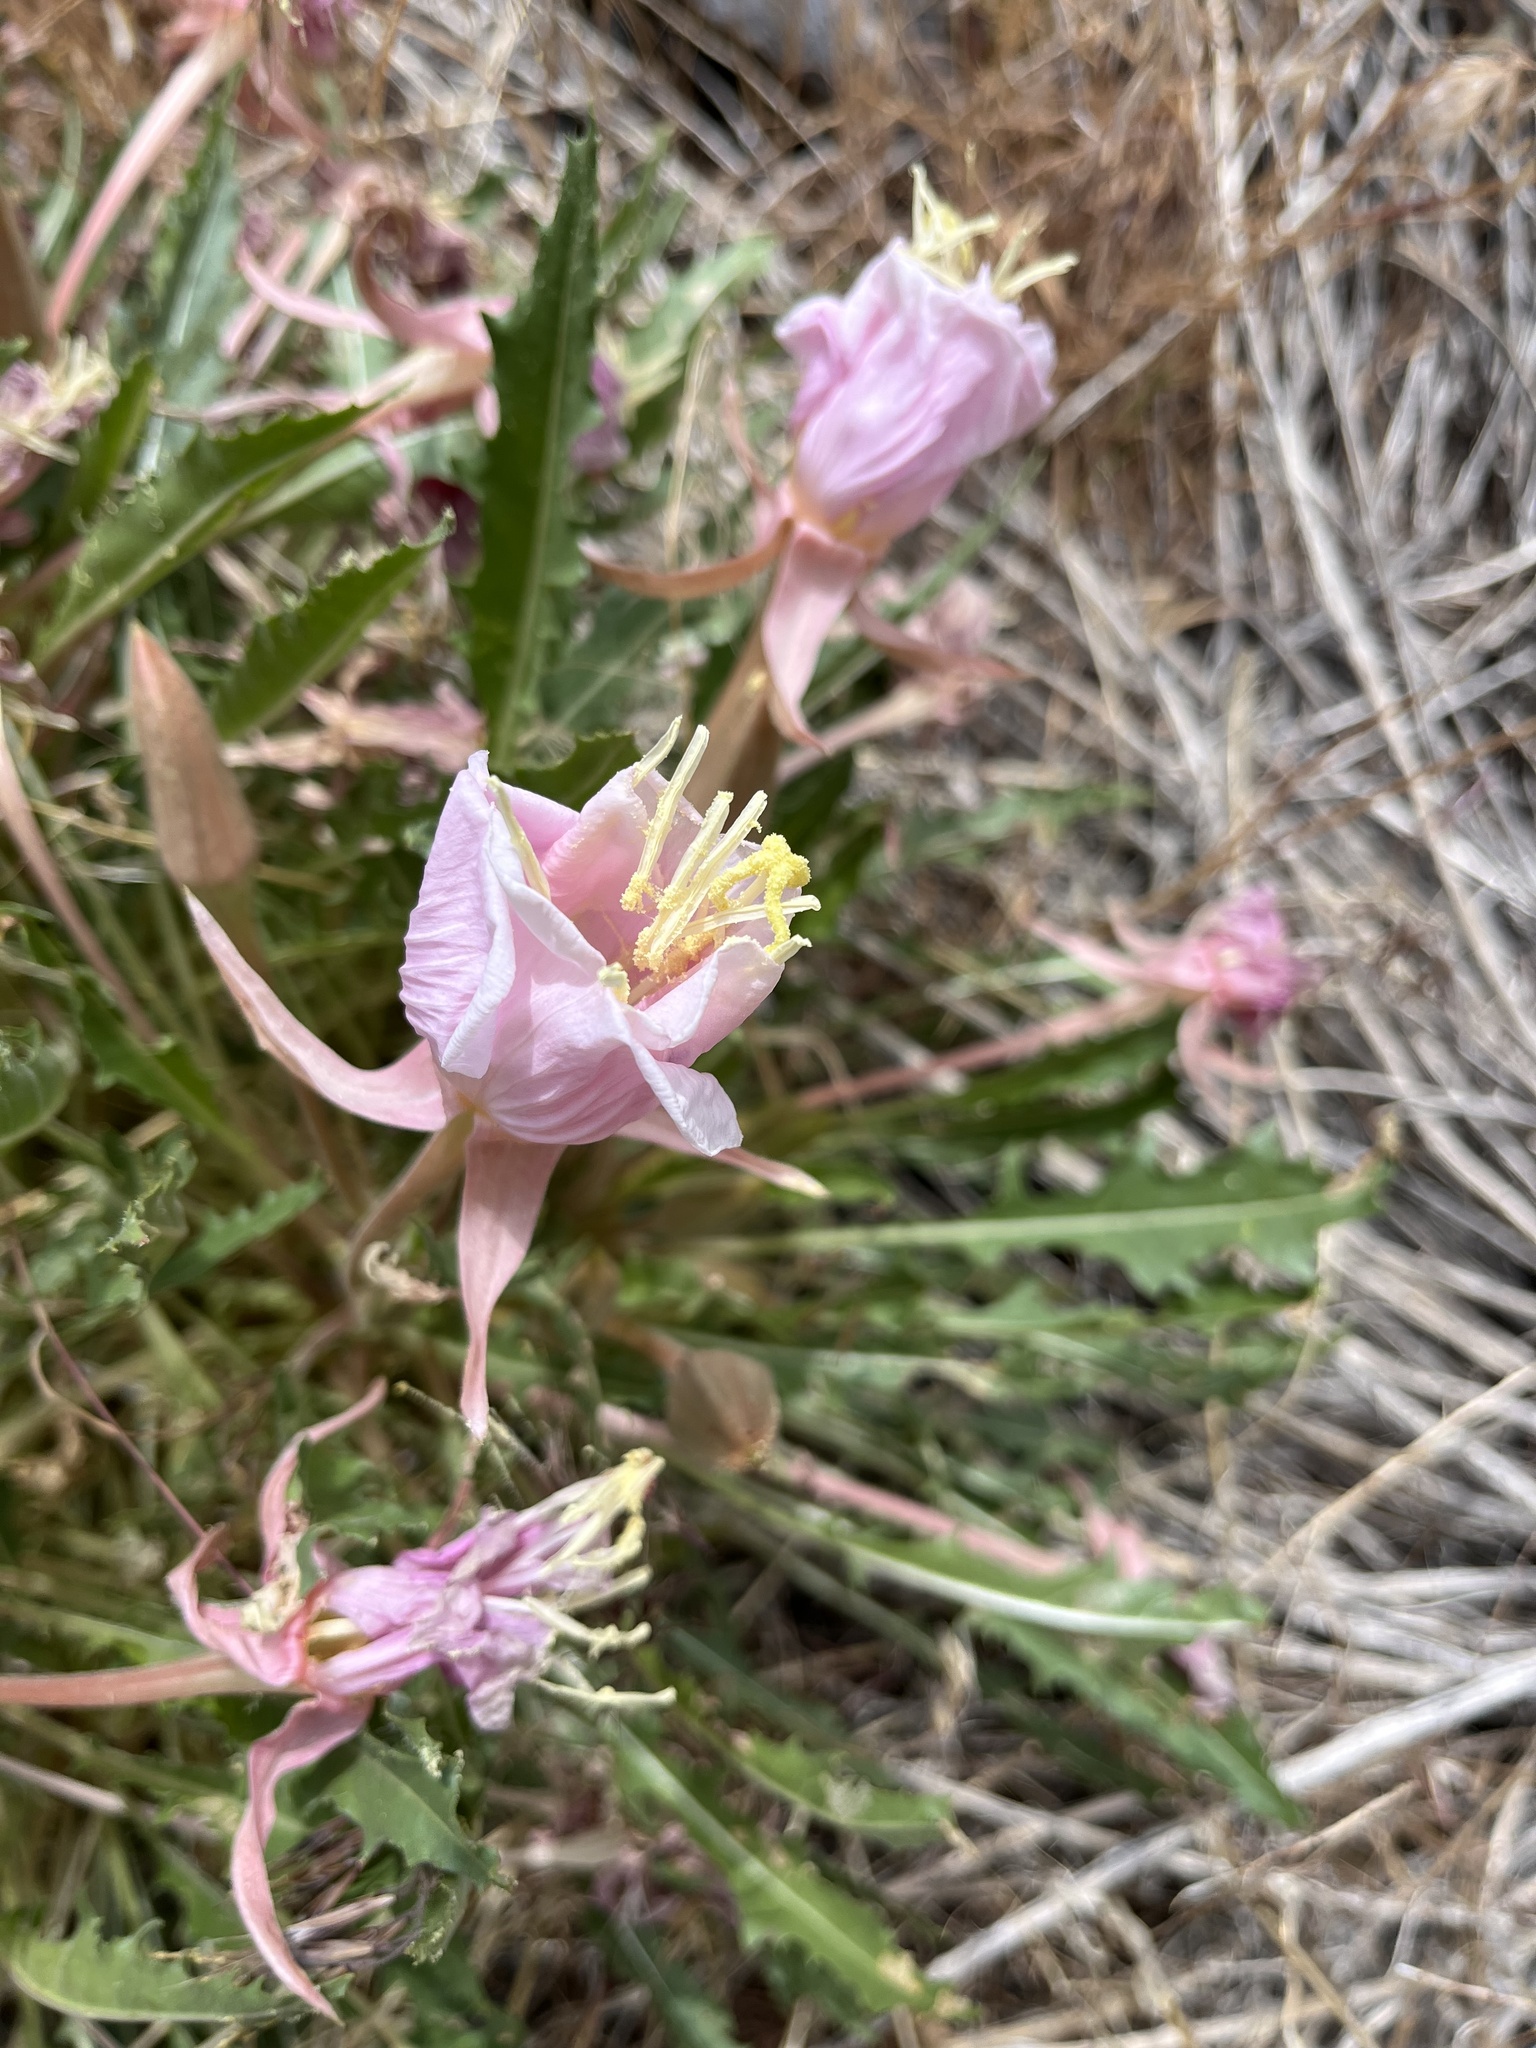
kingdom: Plantae
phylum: Tracheophyta
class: Magnoliopsida
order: Myrtales
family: Onagraceae
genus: Oenothera
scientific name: Oenothera cespitosa
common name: Tufted evening-primrose
